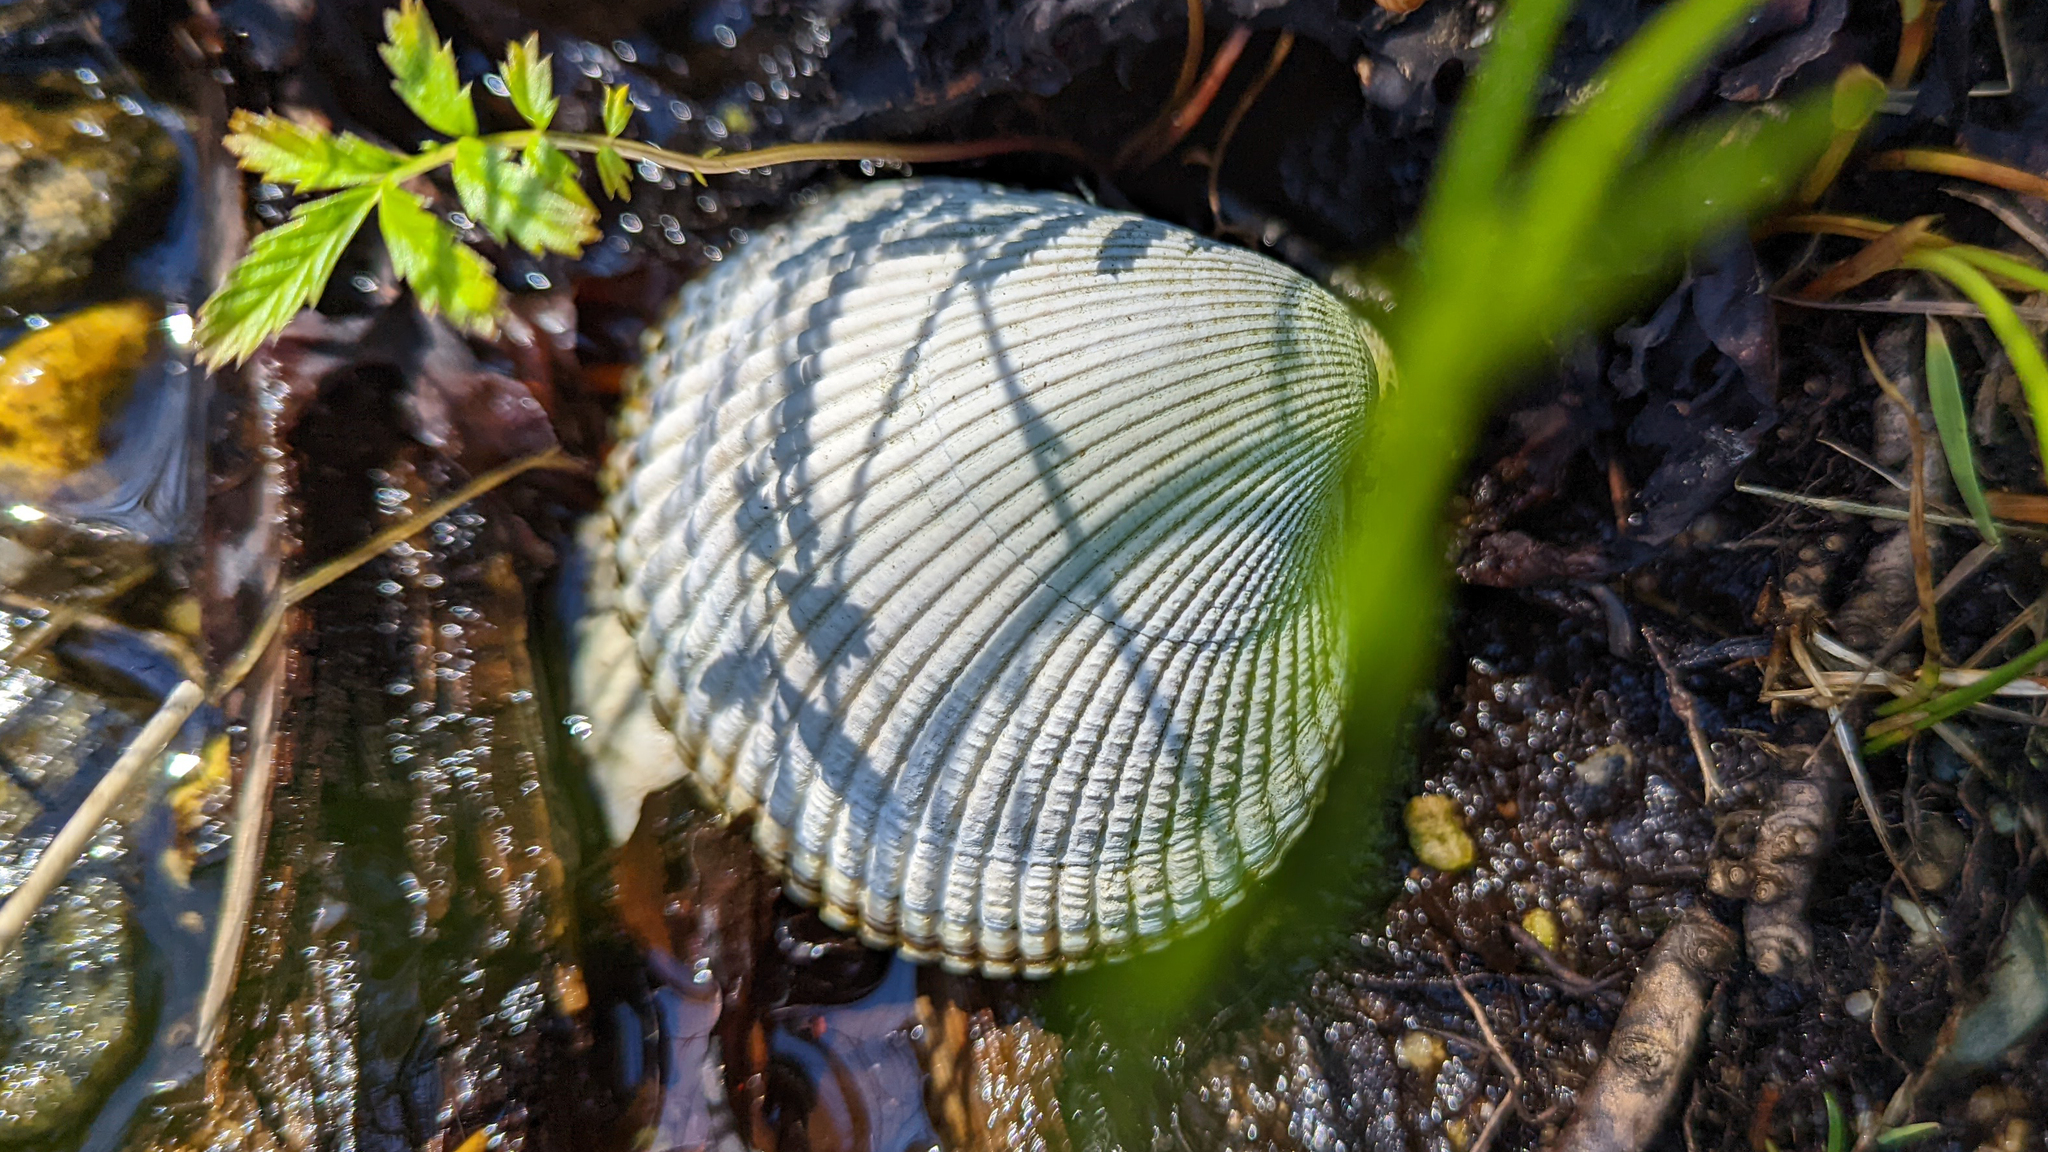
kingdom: Animalia
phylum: Mollusca
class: Bivalvia
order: Cardiida
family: Cardiidae
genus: Clinocardium
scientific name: Clinocardium nuttallii
